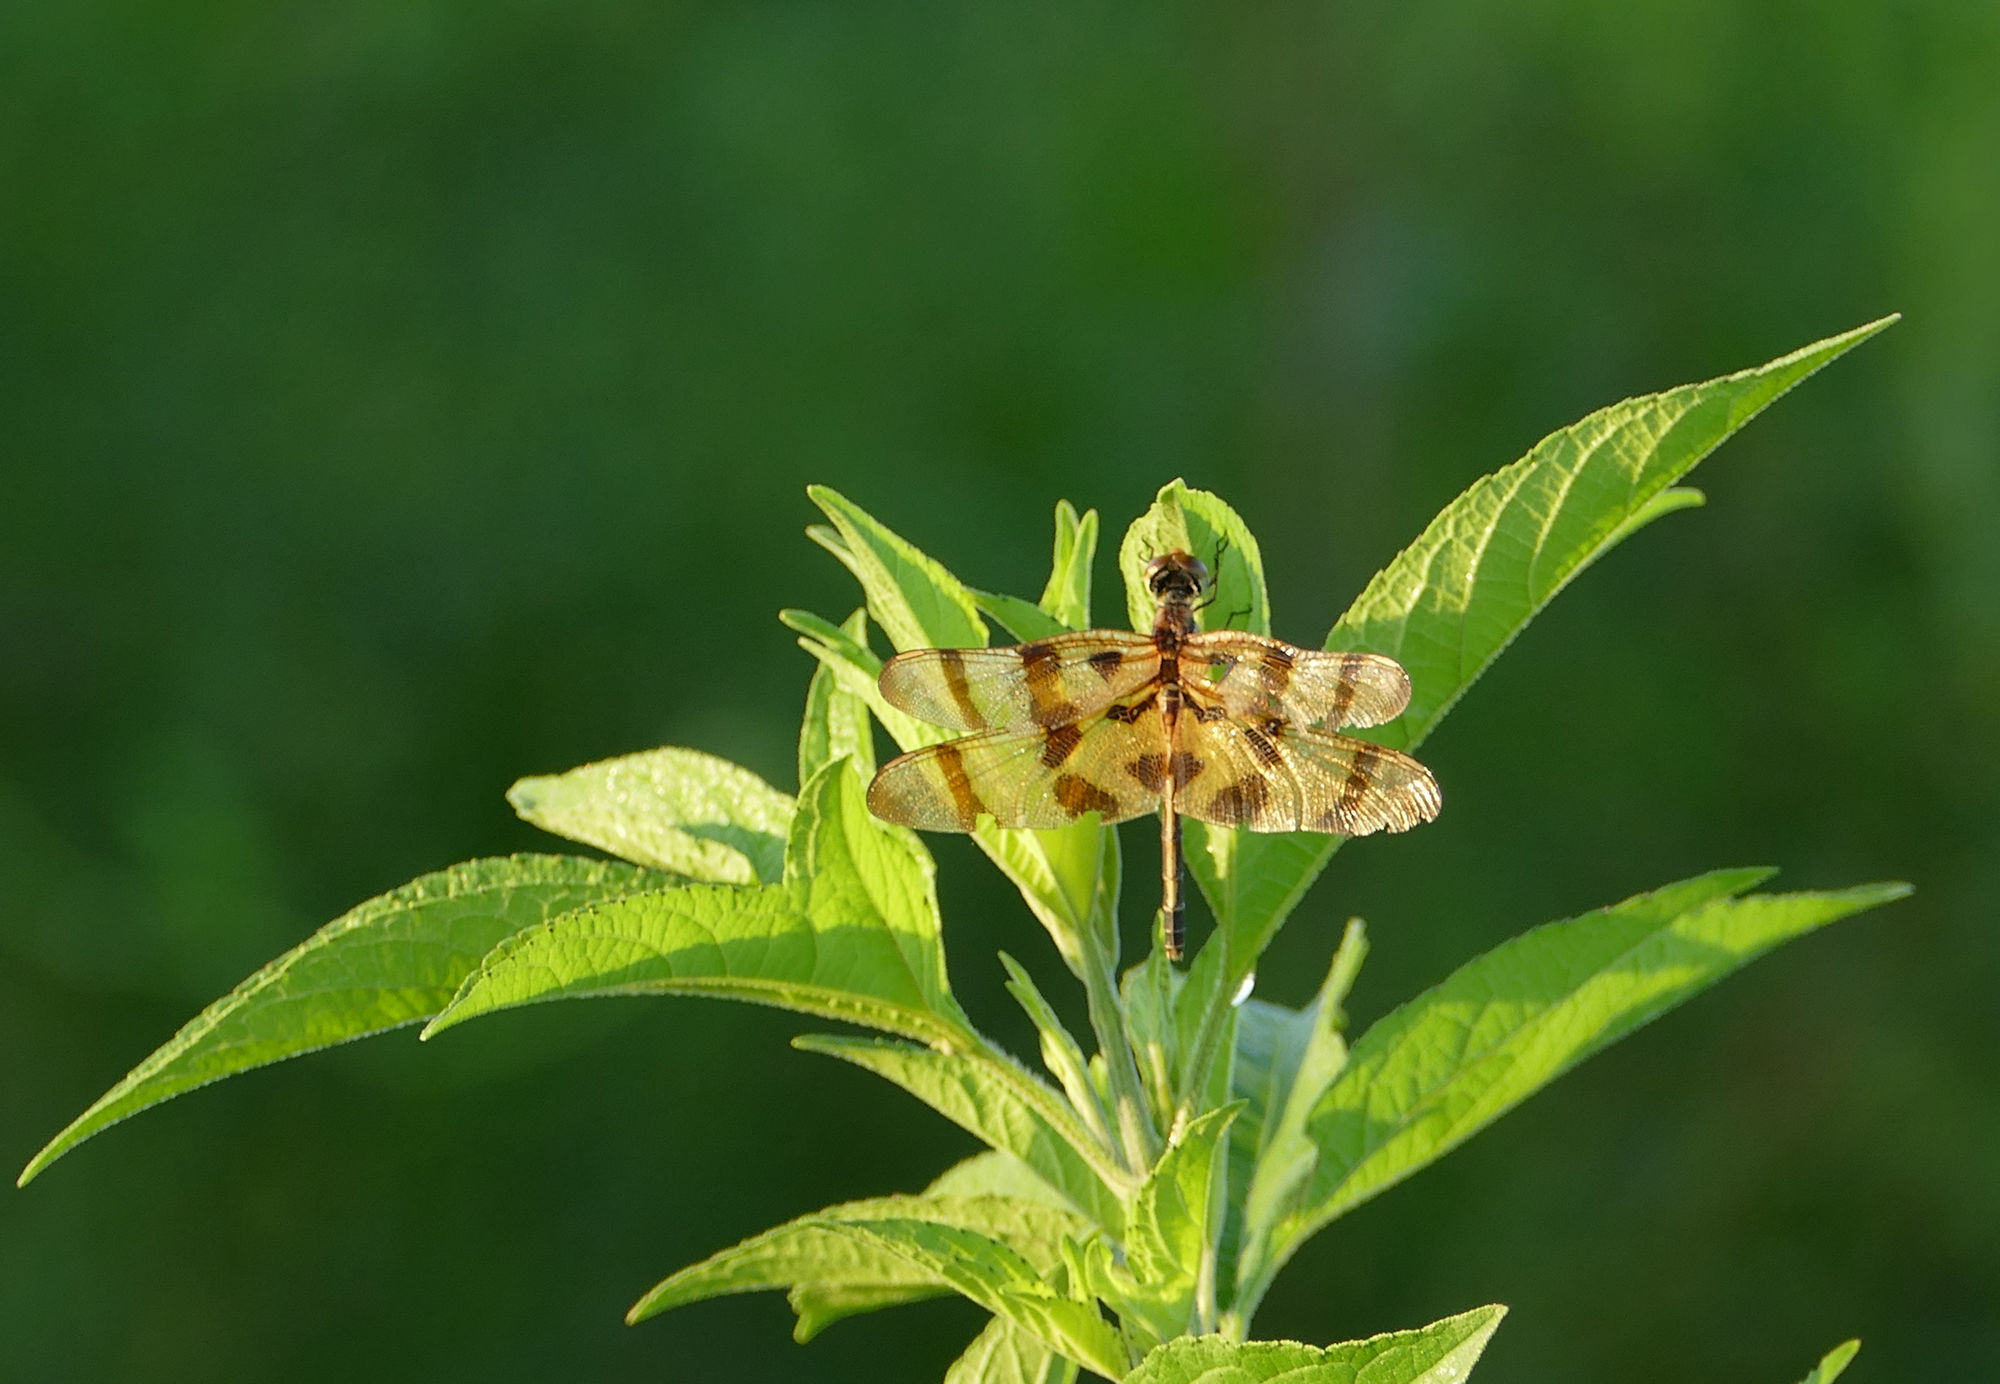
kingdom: Animalia
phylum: Arthropoda
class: Insecta
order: Odonata
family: Libellulidae
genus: Celithemis
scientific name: Celithemis eponina
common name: Halloween pennant
